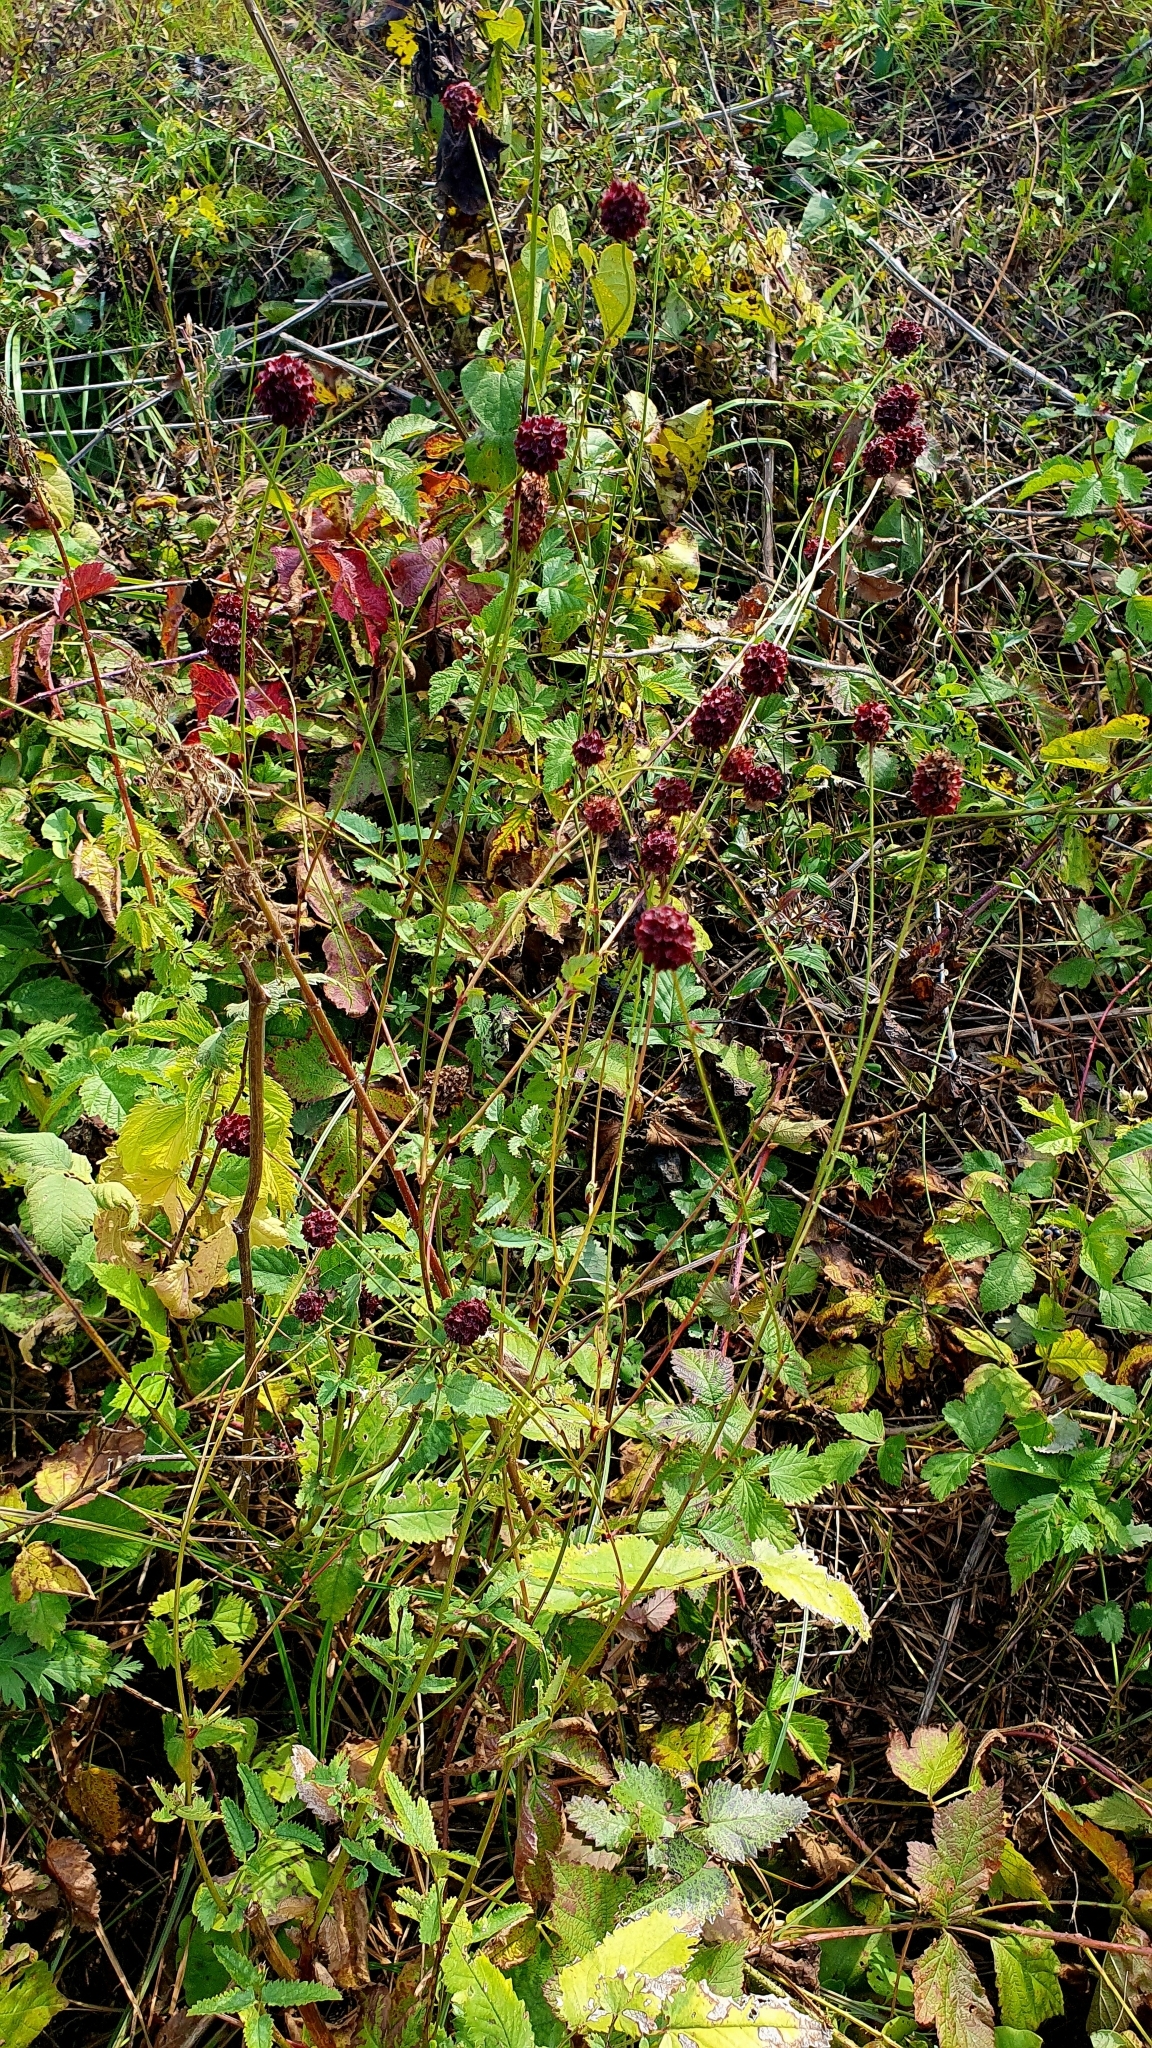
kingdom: Plantae
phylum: Tracheophyta
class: Magnoliopsida
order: Rosales
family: Rosaceae
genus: Sanguisorba
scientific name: Sanguisorba officinalis
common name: Great burnet
